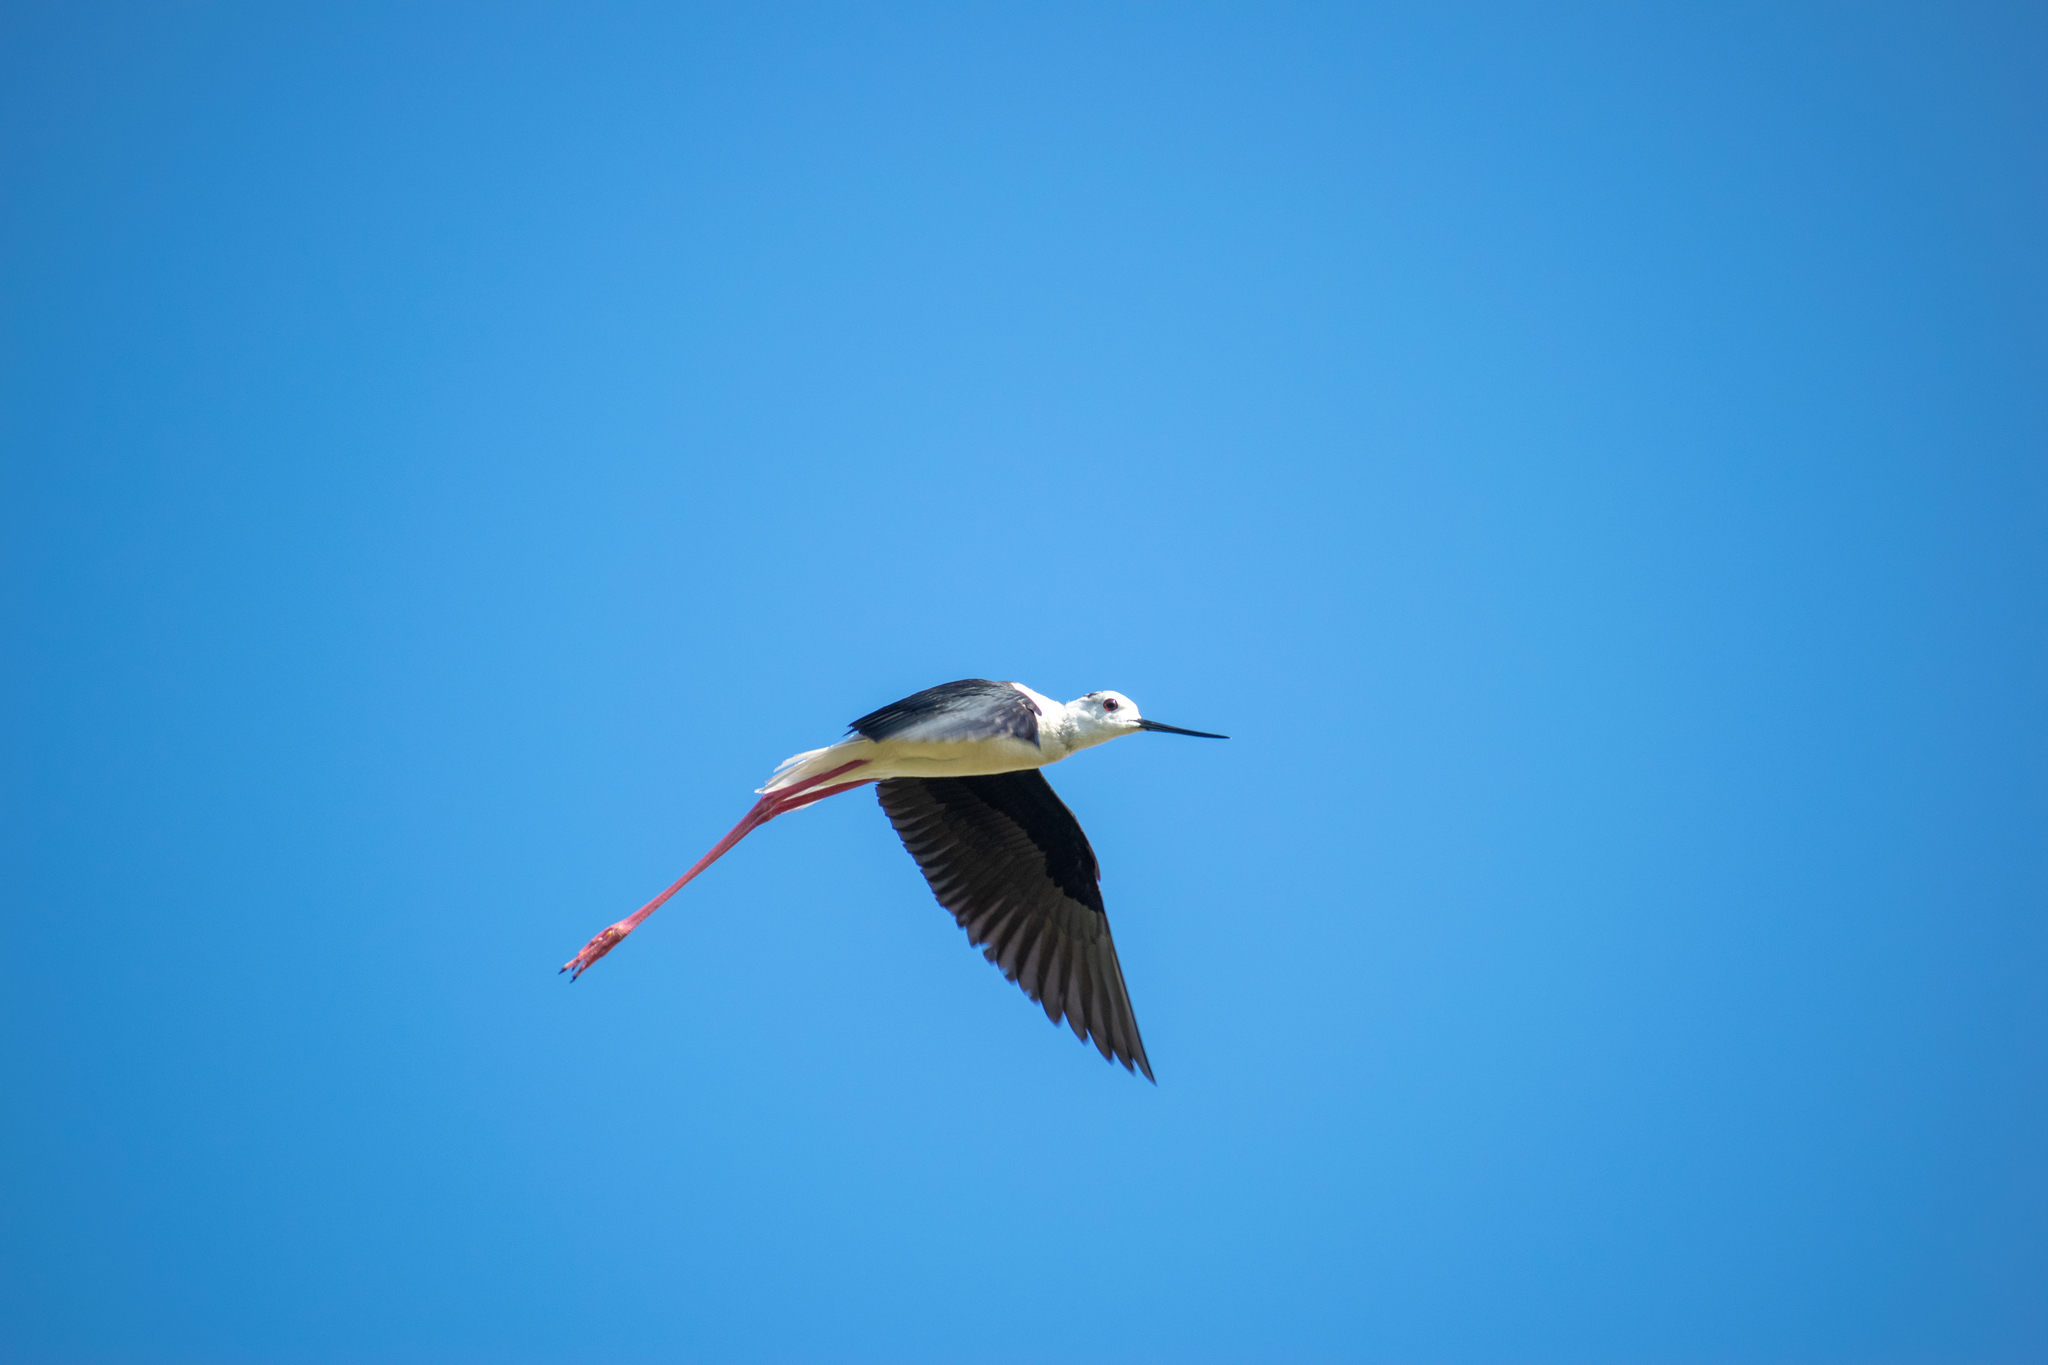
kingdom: Animalia
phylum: Chordata
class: Aves
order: Charadriiformes
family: Recurvirostridae
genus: Himantopus
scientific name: Himantopus himantopus
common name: Black-winged stilt
